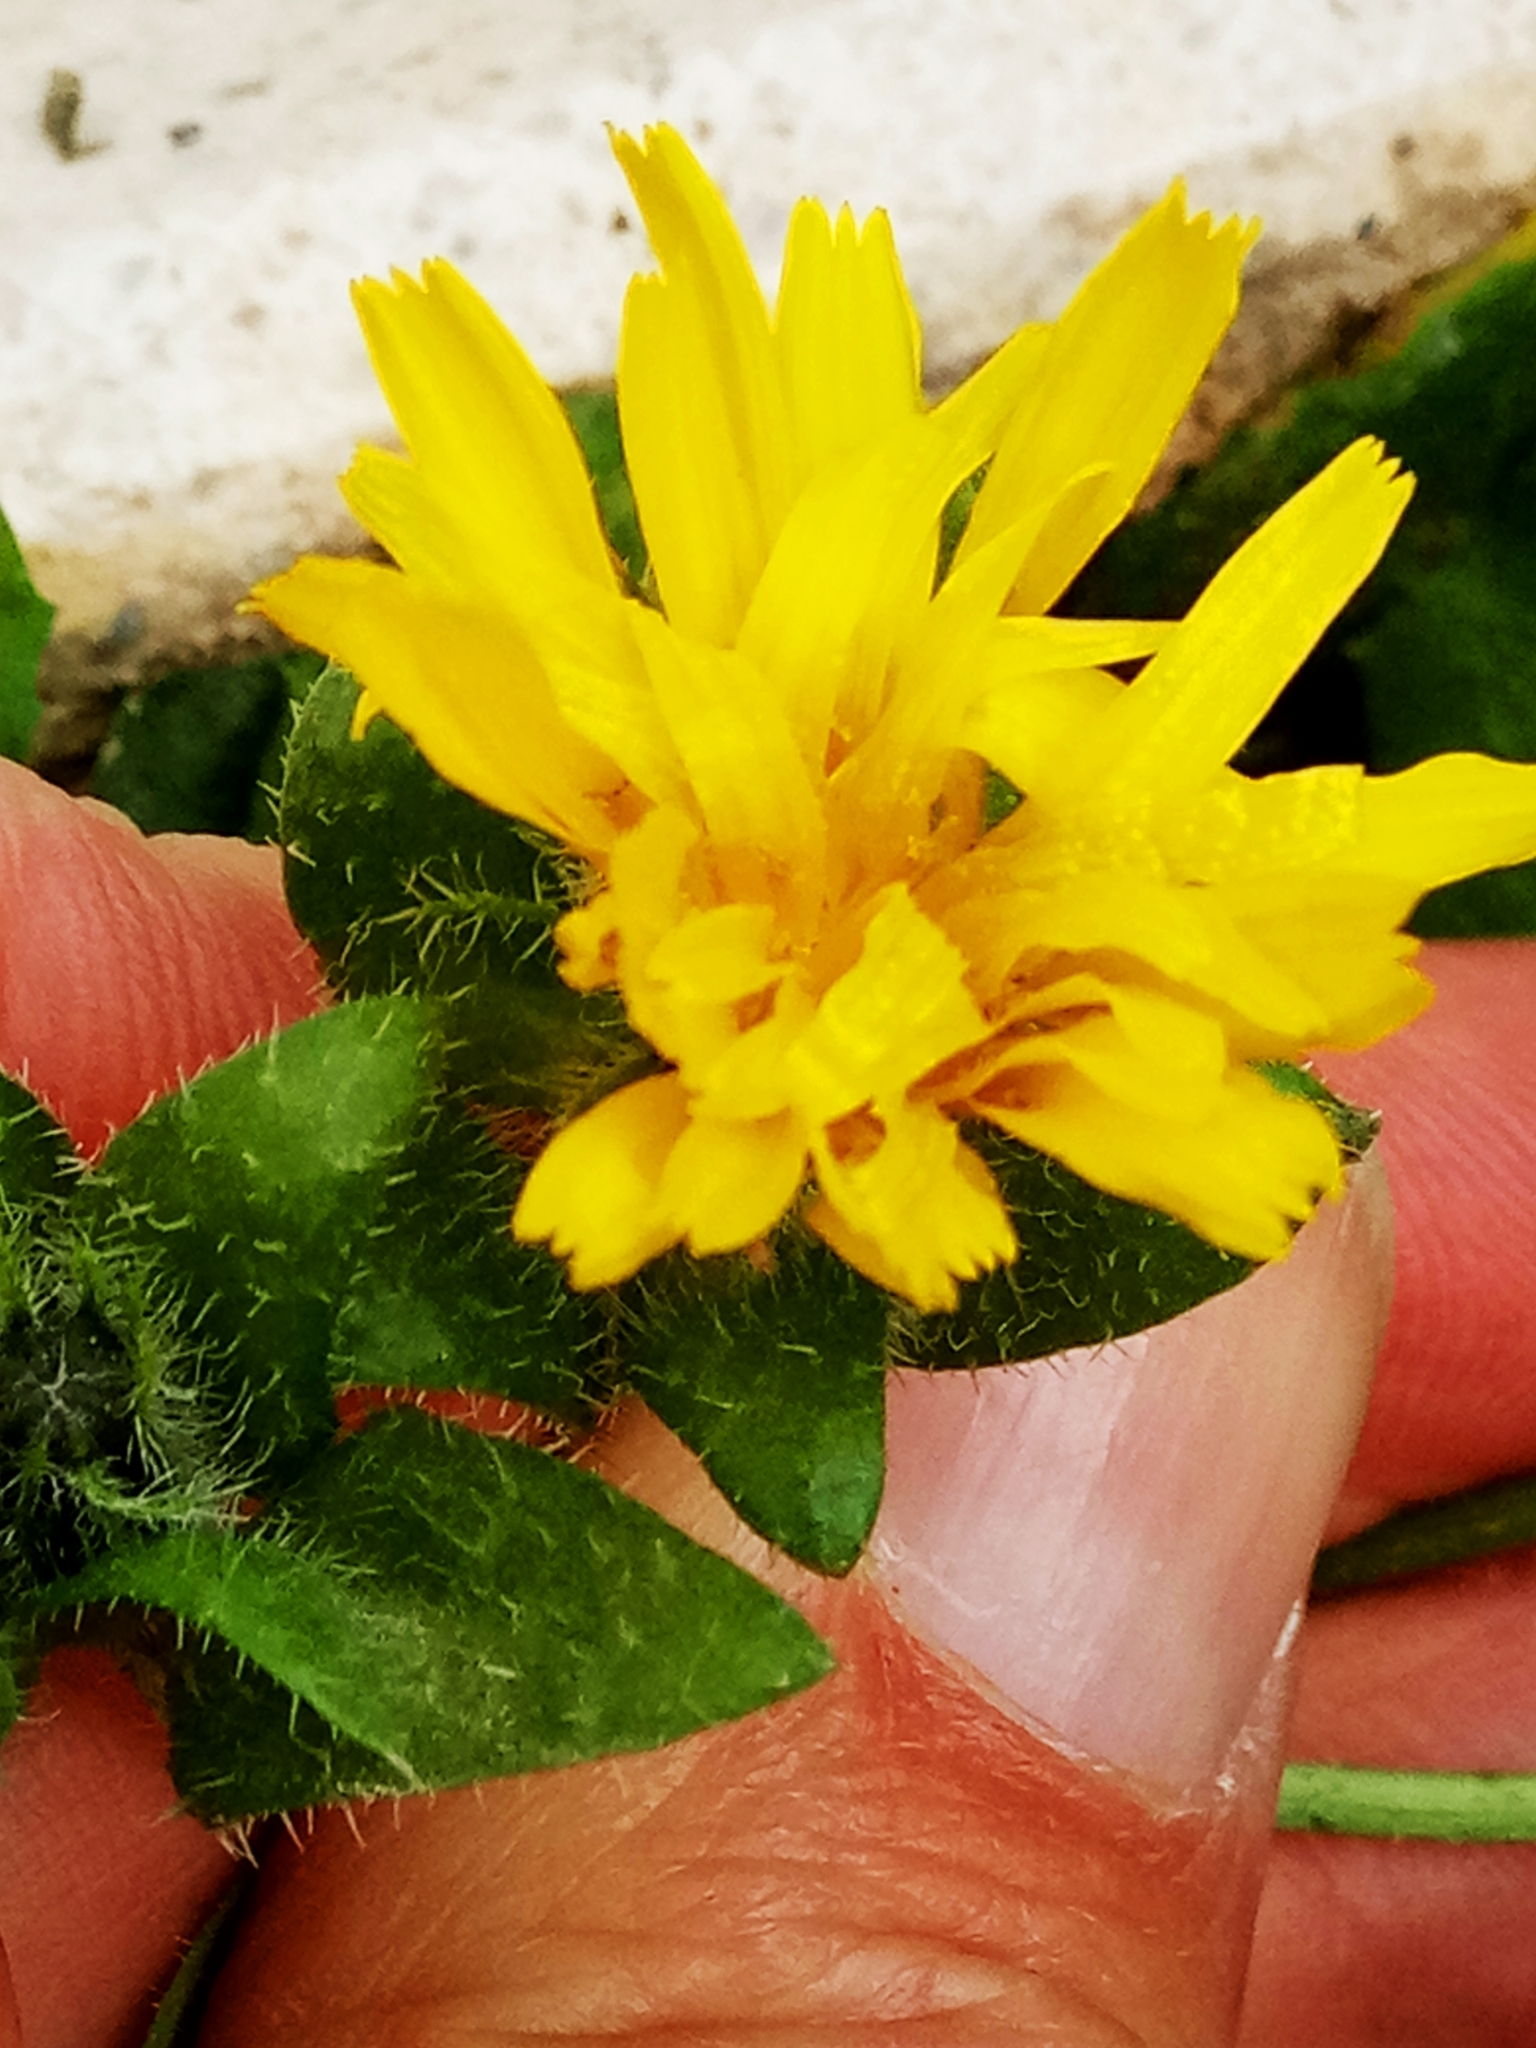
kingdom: Plantae
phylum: Tracheophyta
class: Magnoliopsida
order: Asterales
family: Asteraceae
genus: Helminthotheca
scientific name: Helminthotheca echioides
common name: Ox-tongue
